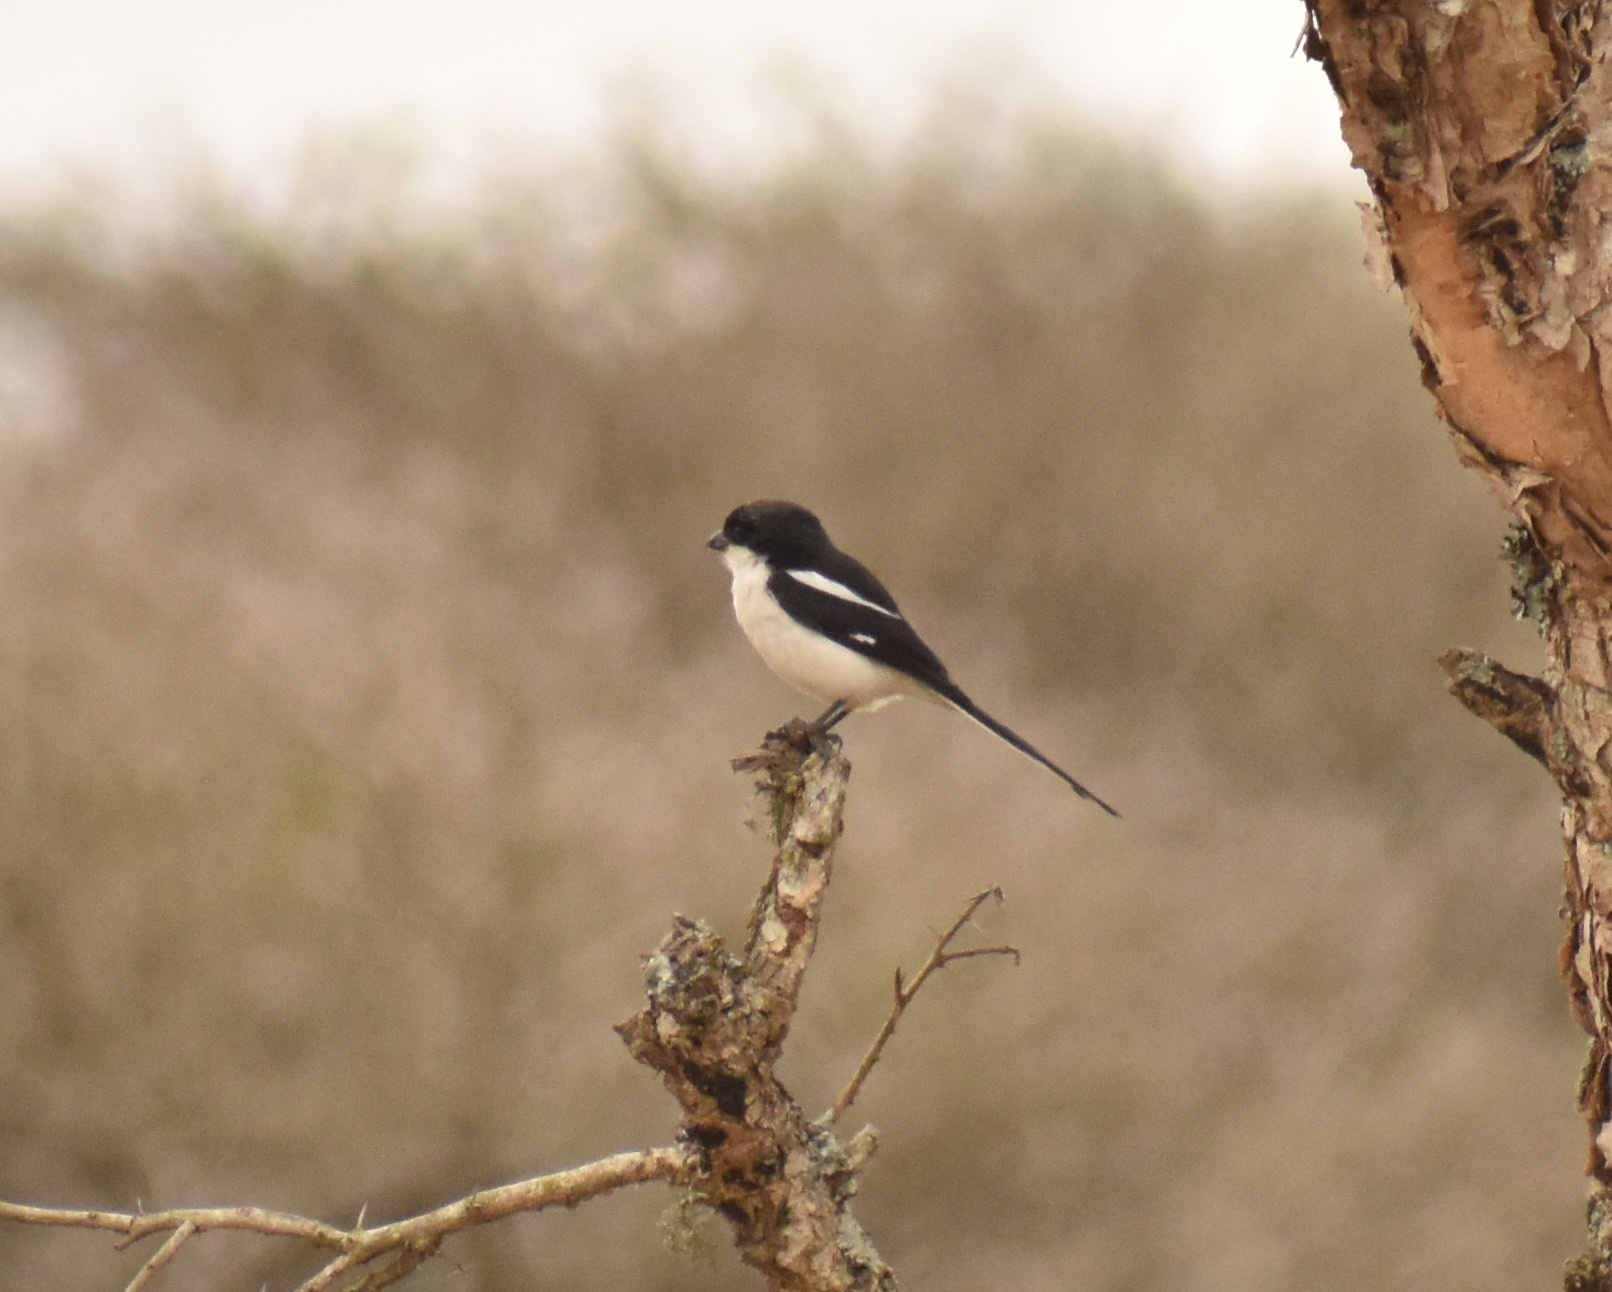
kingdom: Animalia
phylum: Chordata
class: Aves
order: Passeriformes
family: Laniidae
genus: Lanius
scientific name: Lanius collaris
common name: Southern fiscal
